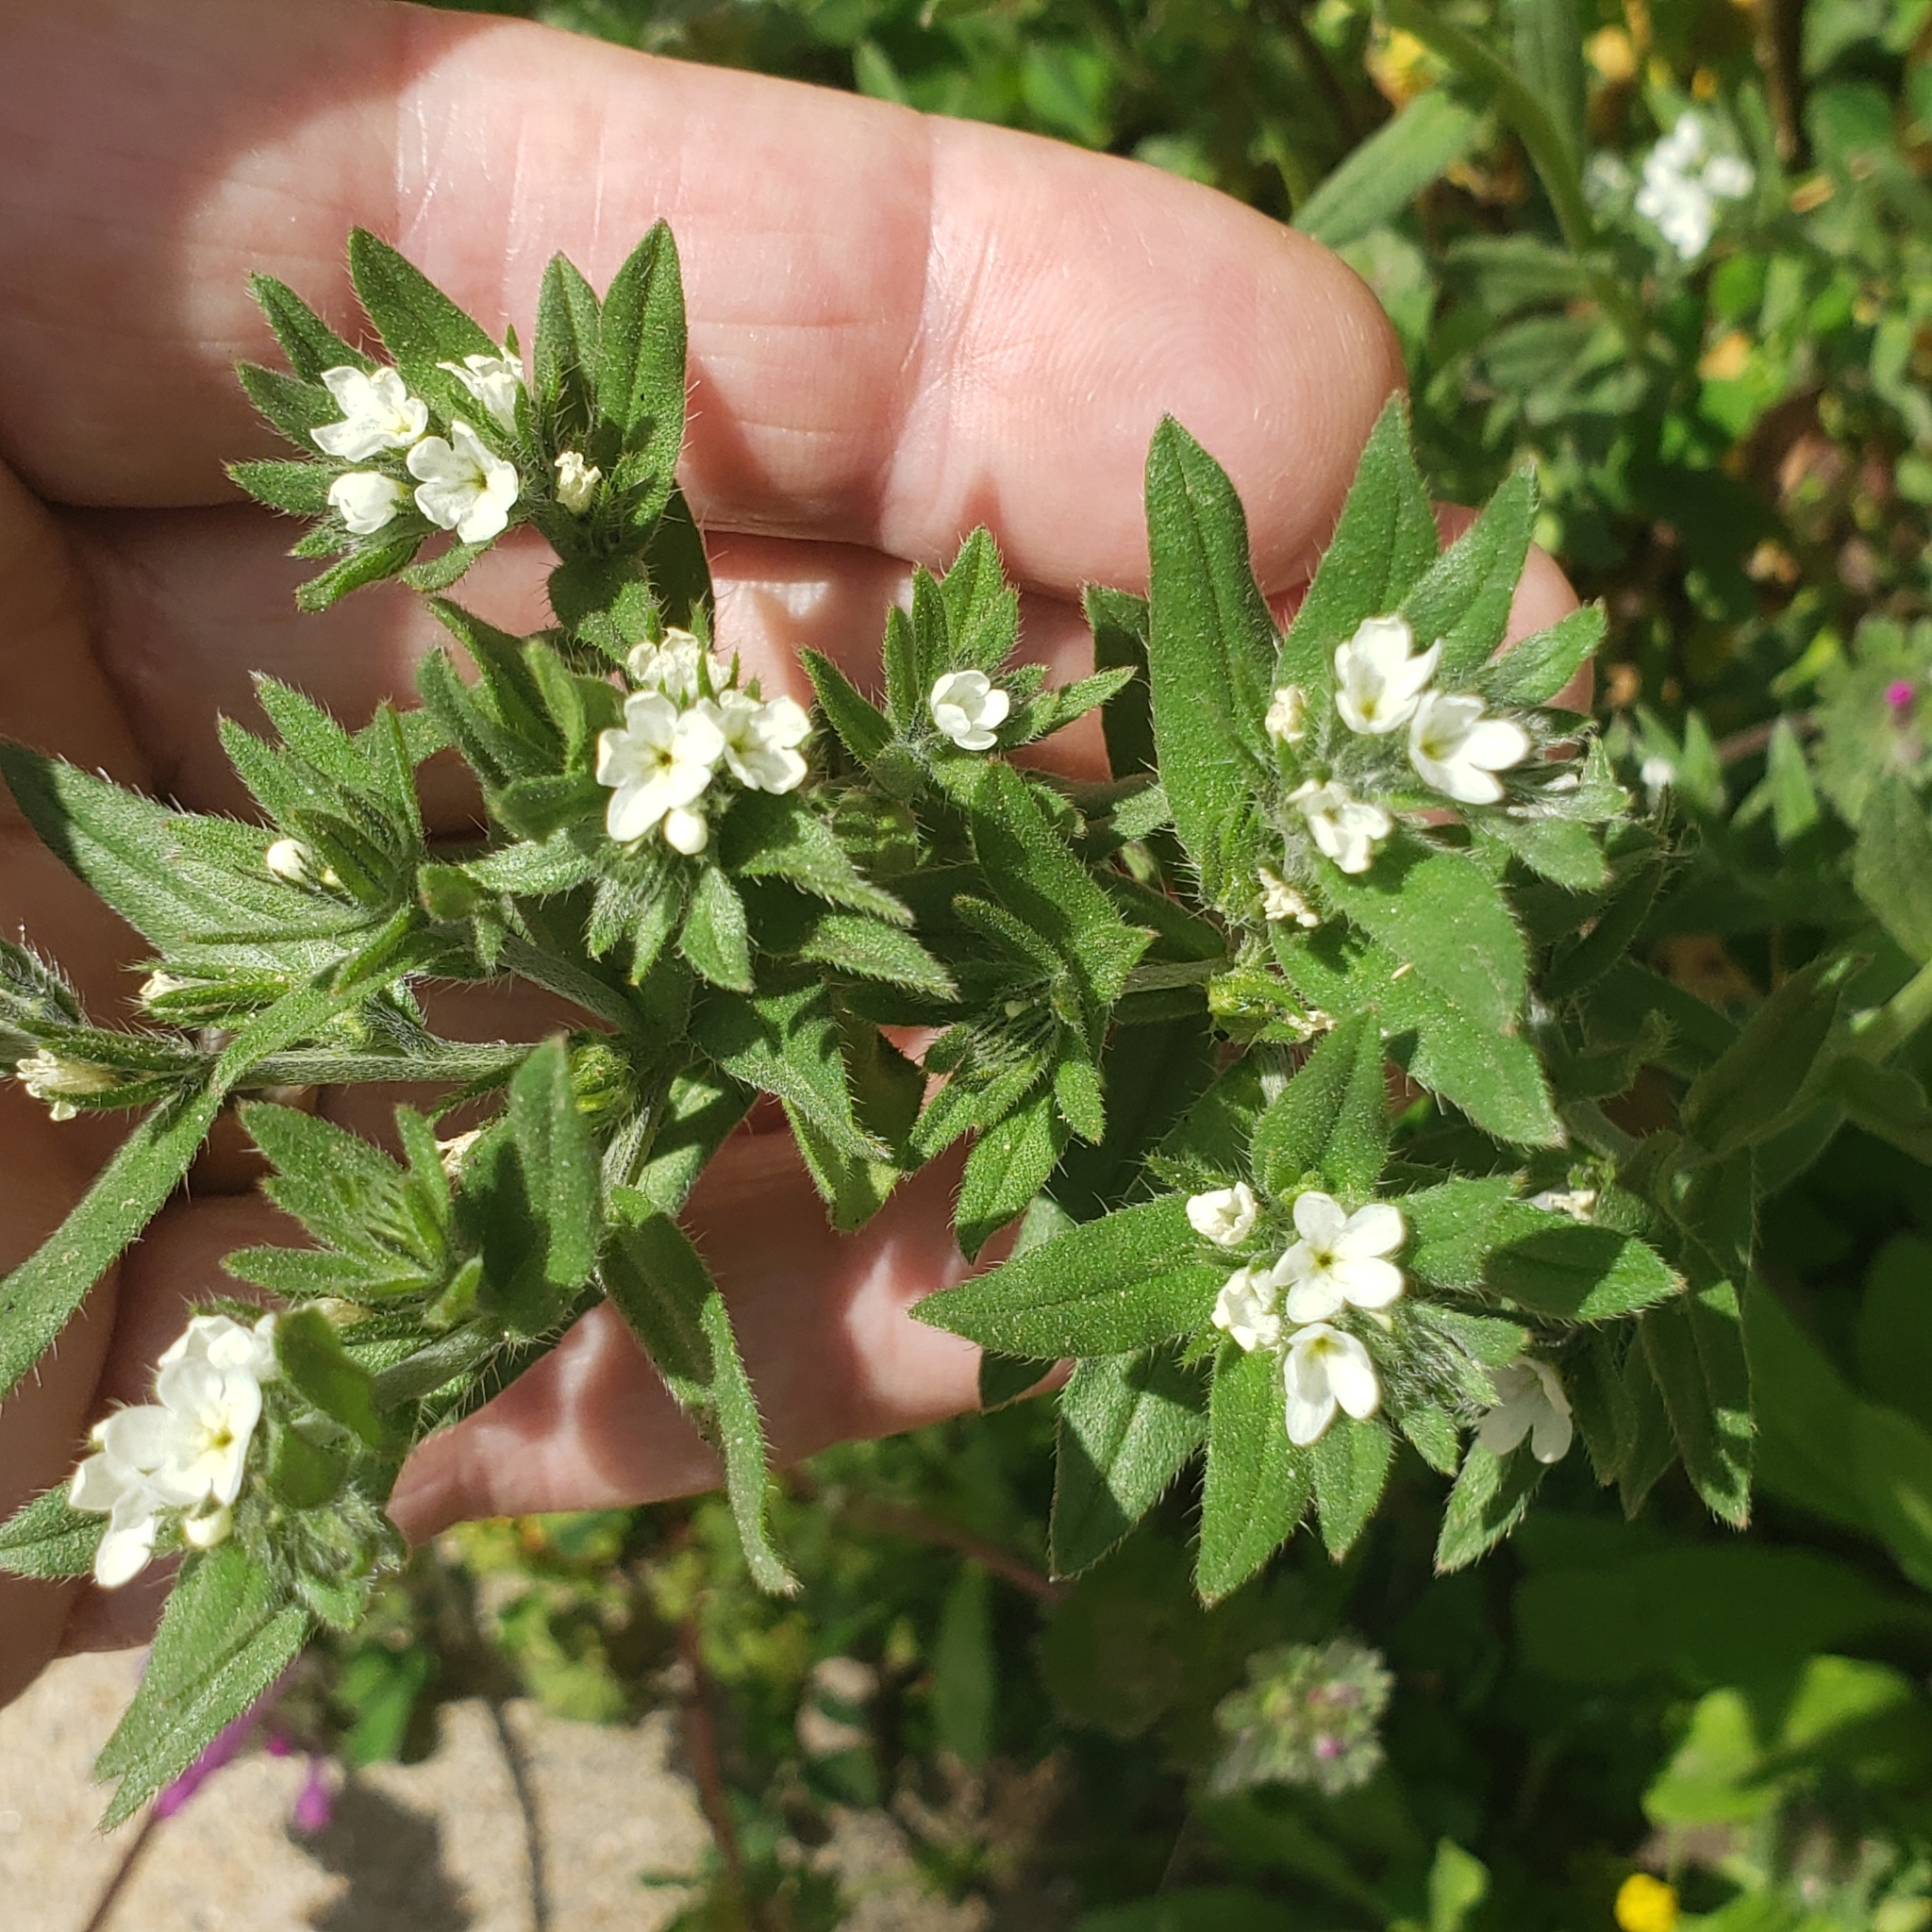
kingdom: Plantae
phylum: Tracheophyta
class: Magnoliopsida
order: Boraginales
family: Boraginaceae
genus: Buglossoides
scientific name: Buglossoides arvensis
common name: Corn gromwell
